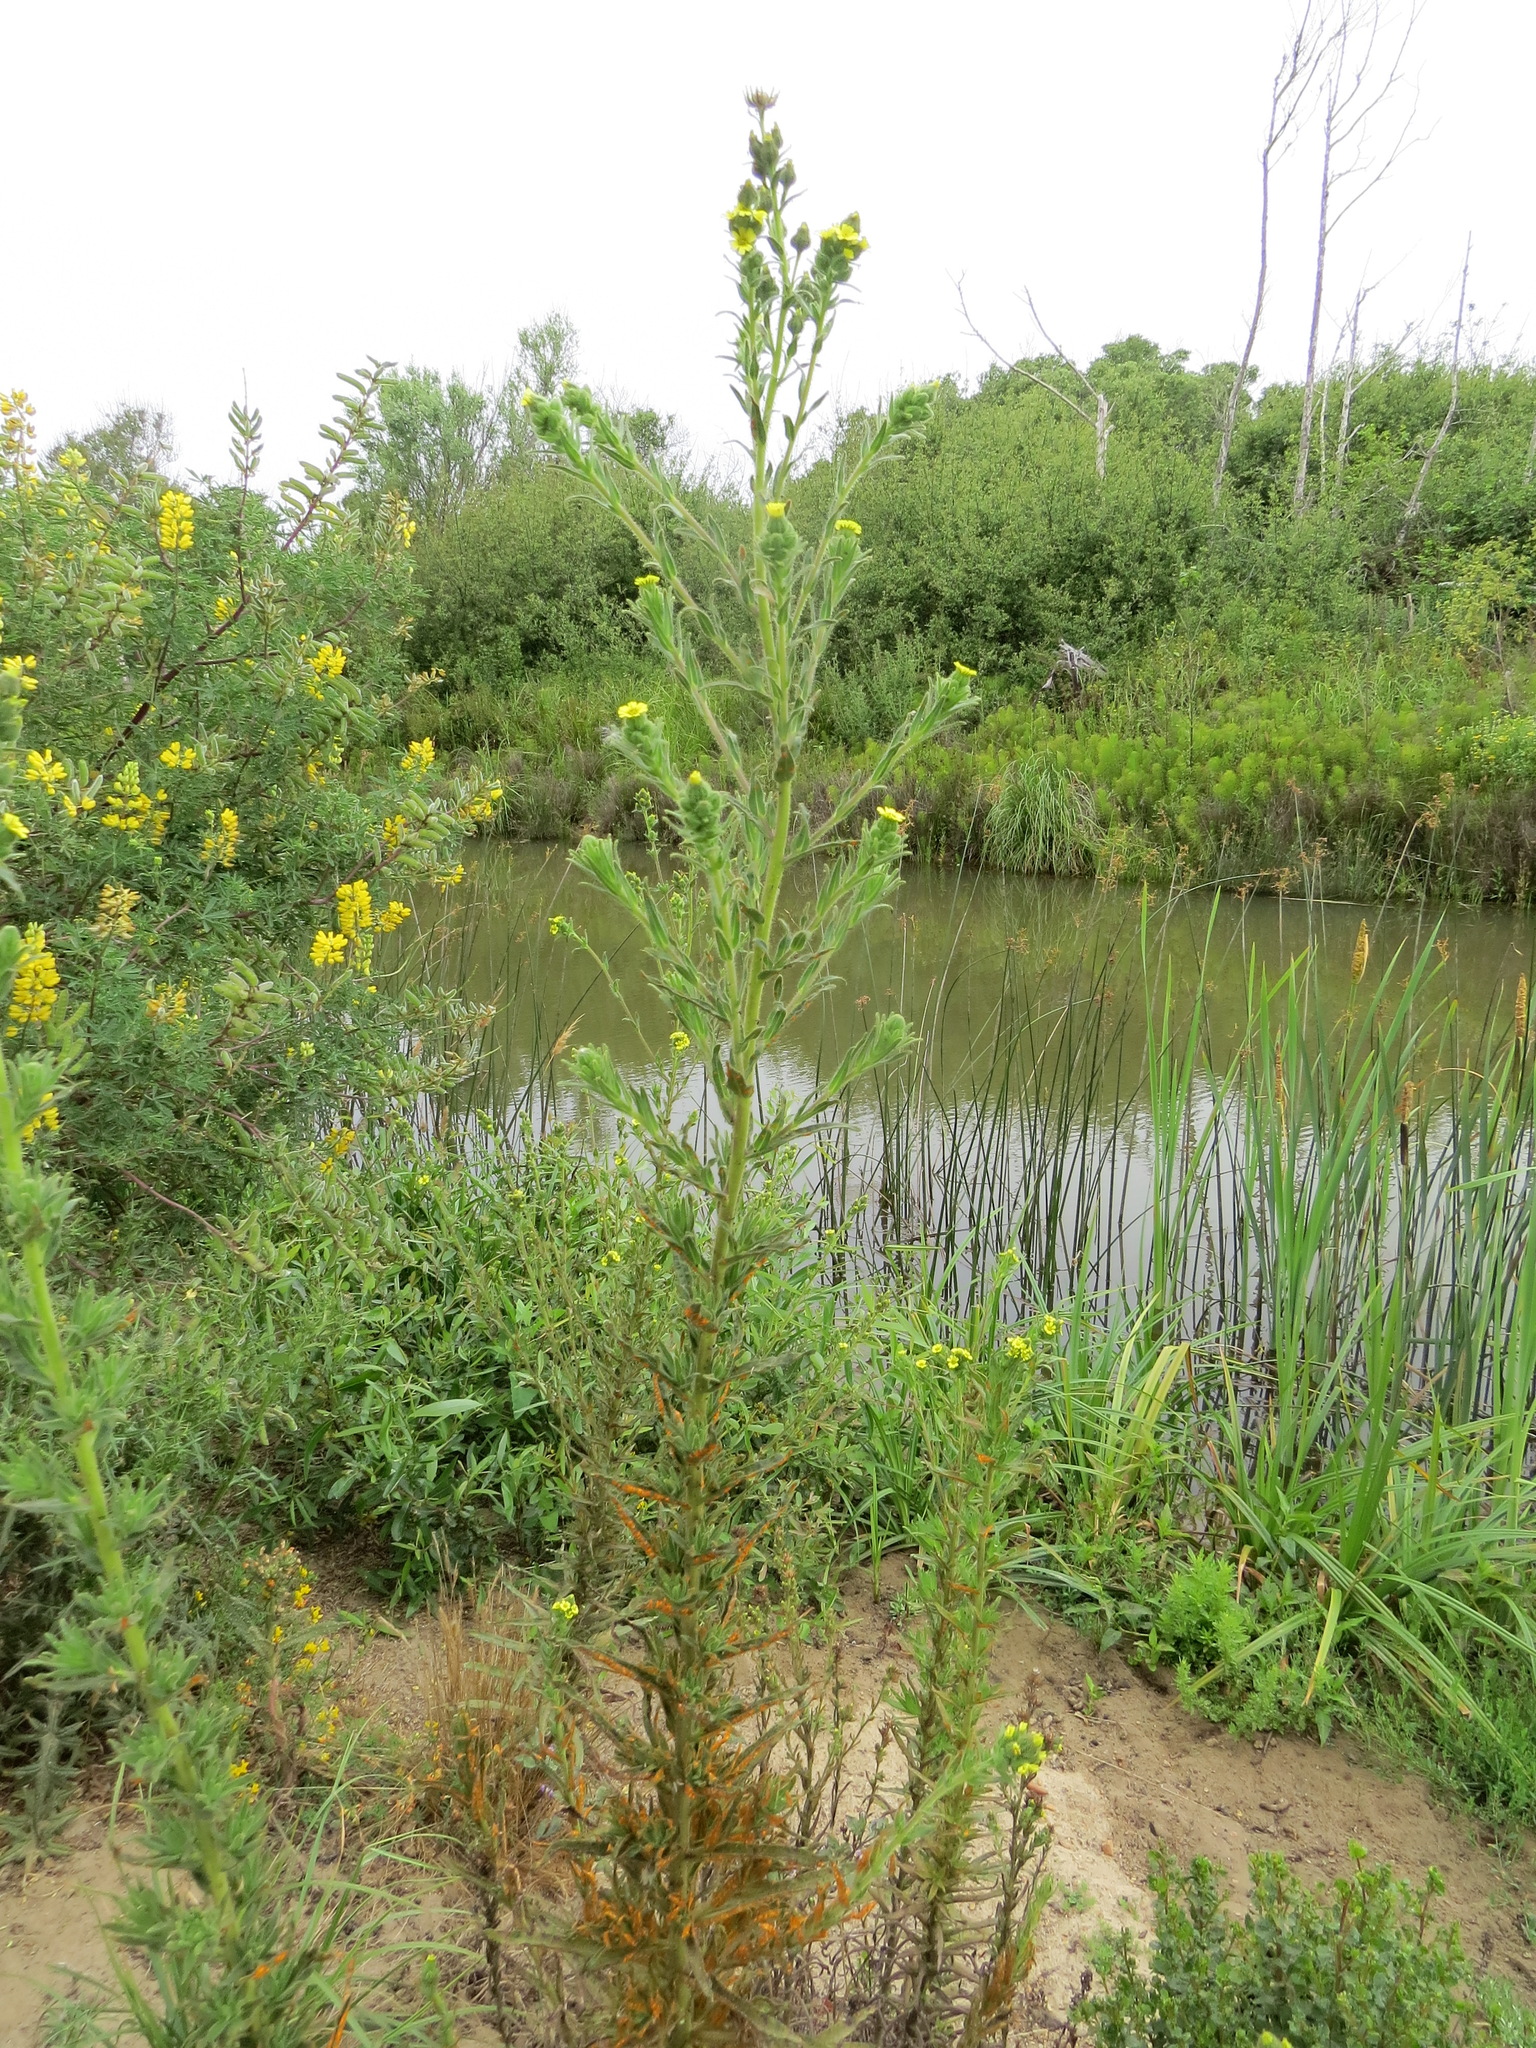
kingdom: Plantae
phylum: Tracheophyta
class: Magnoliopsida
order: Asterales
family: Asteraceae
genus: Madia
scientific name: Madia sativa
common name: Coast tarweed
